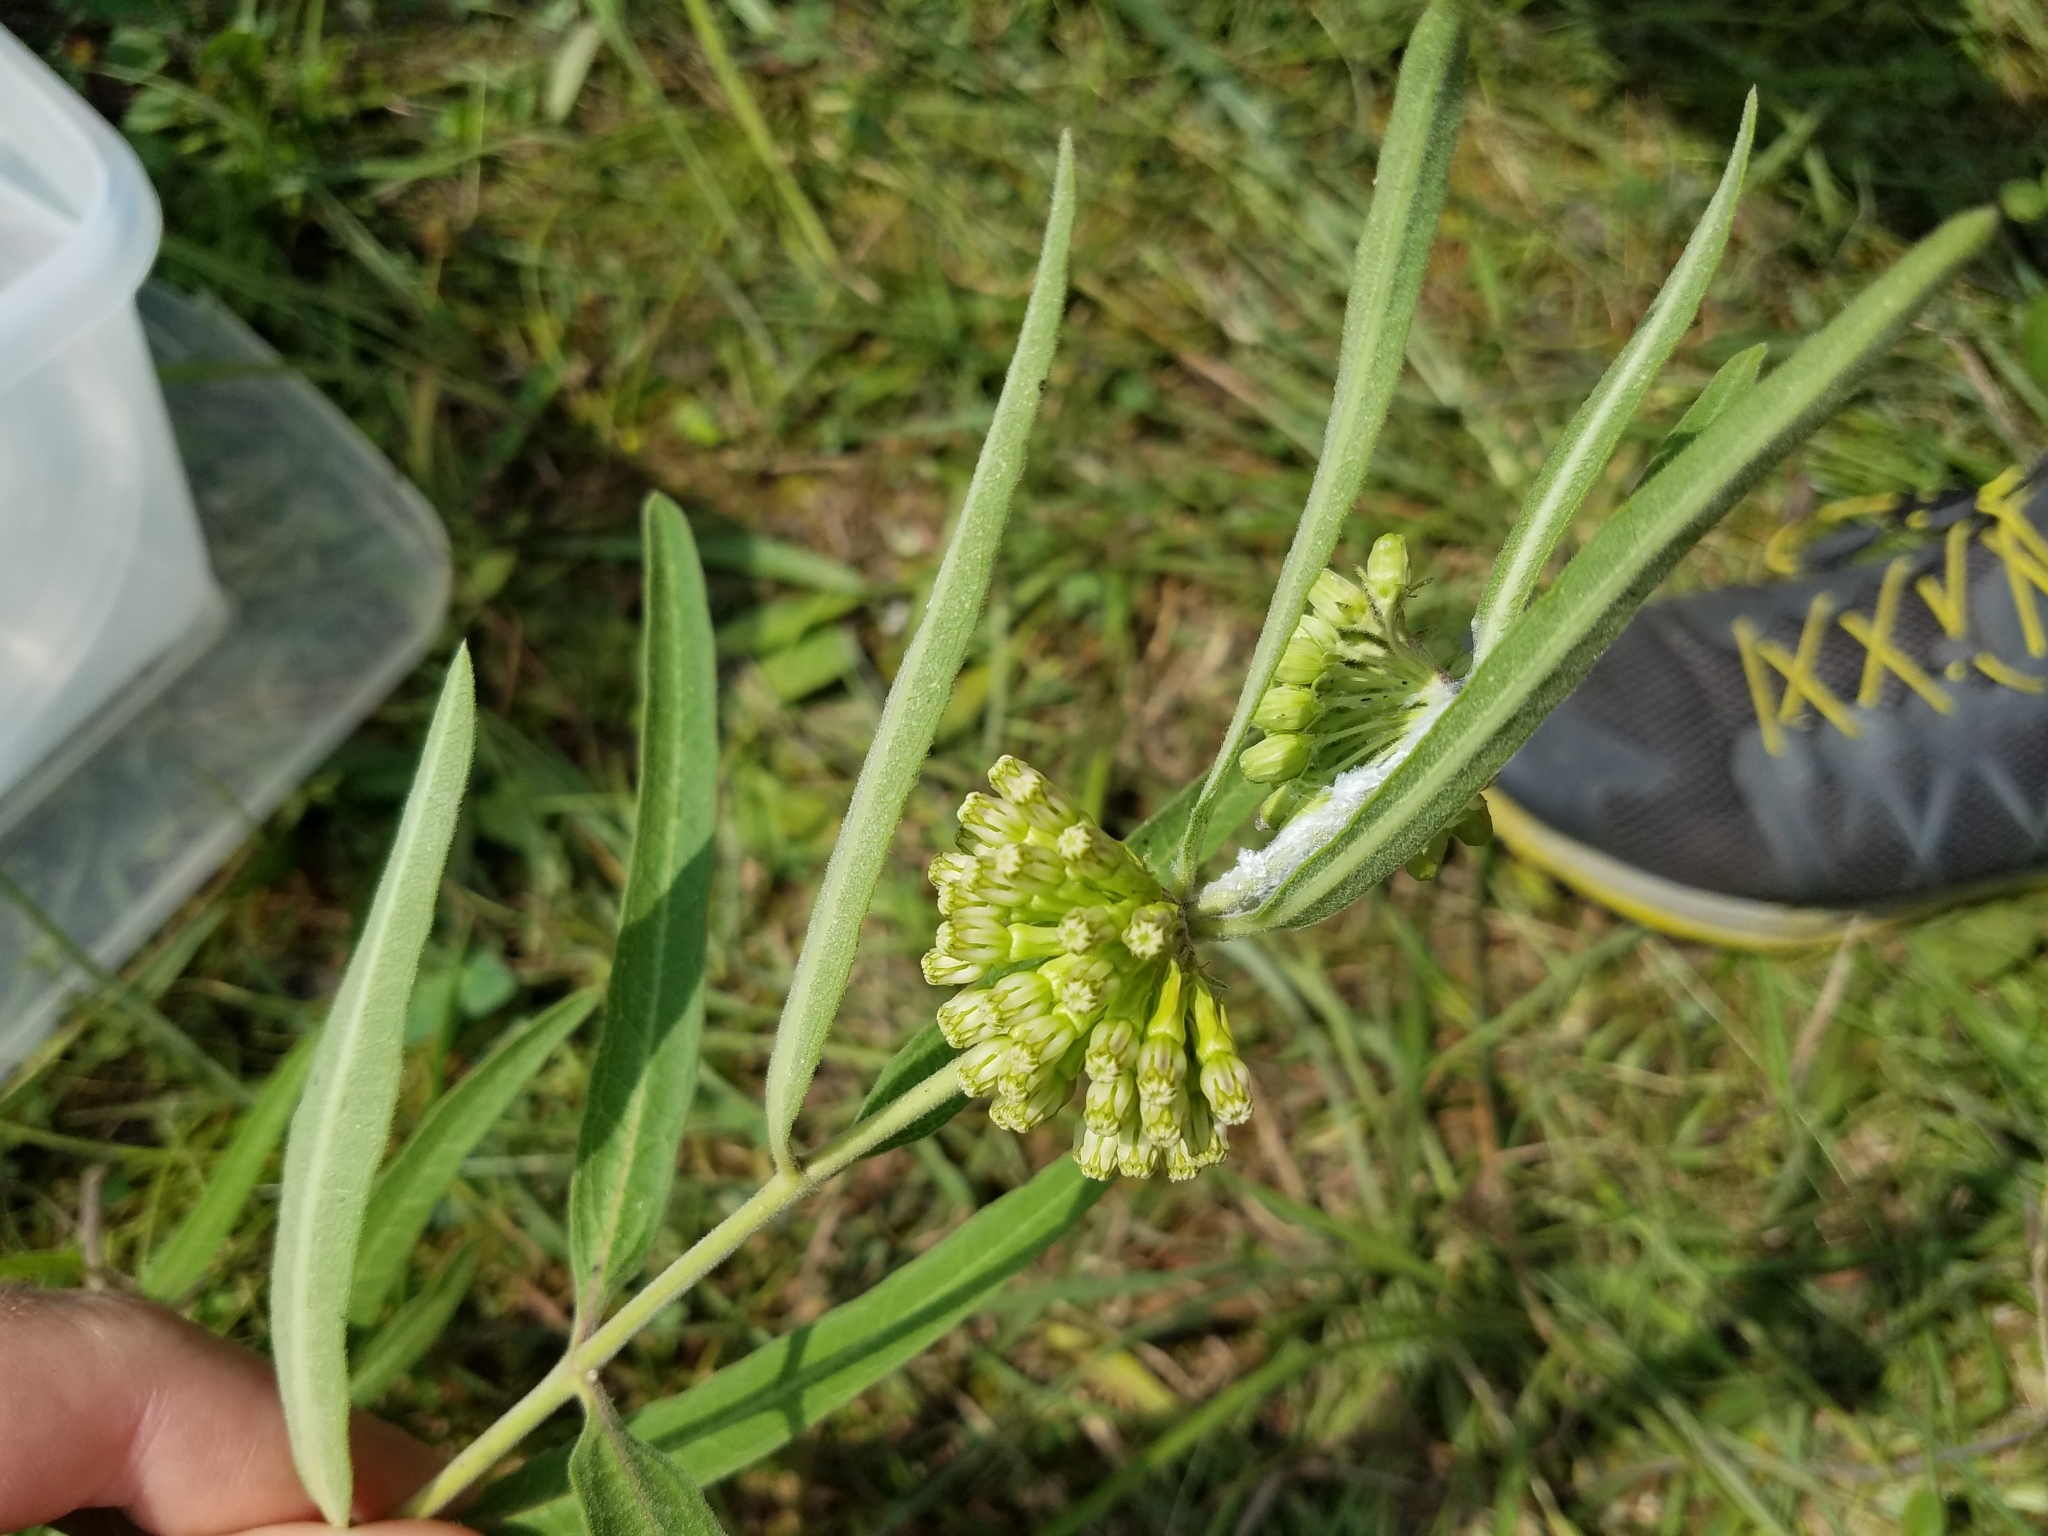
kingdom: Plantae
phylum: Tracheophyta
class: Magnoliopsida
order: Gentianales
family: Apocynaceae
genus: Asclepias
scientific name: Asclepias viridiflora
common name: Green comet milkweed
